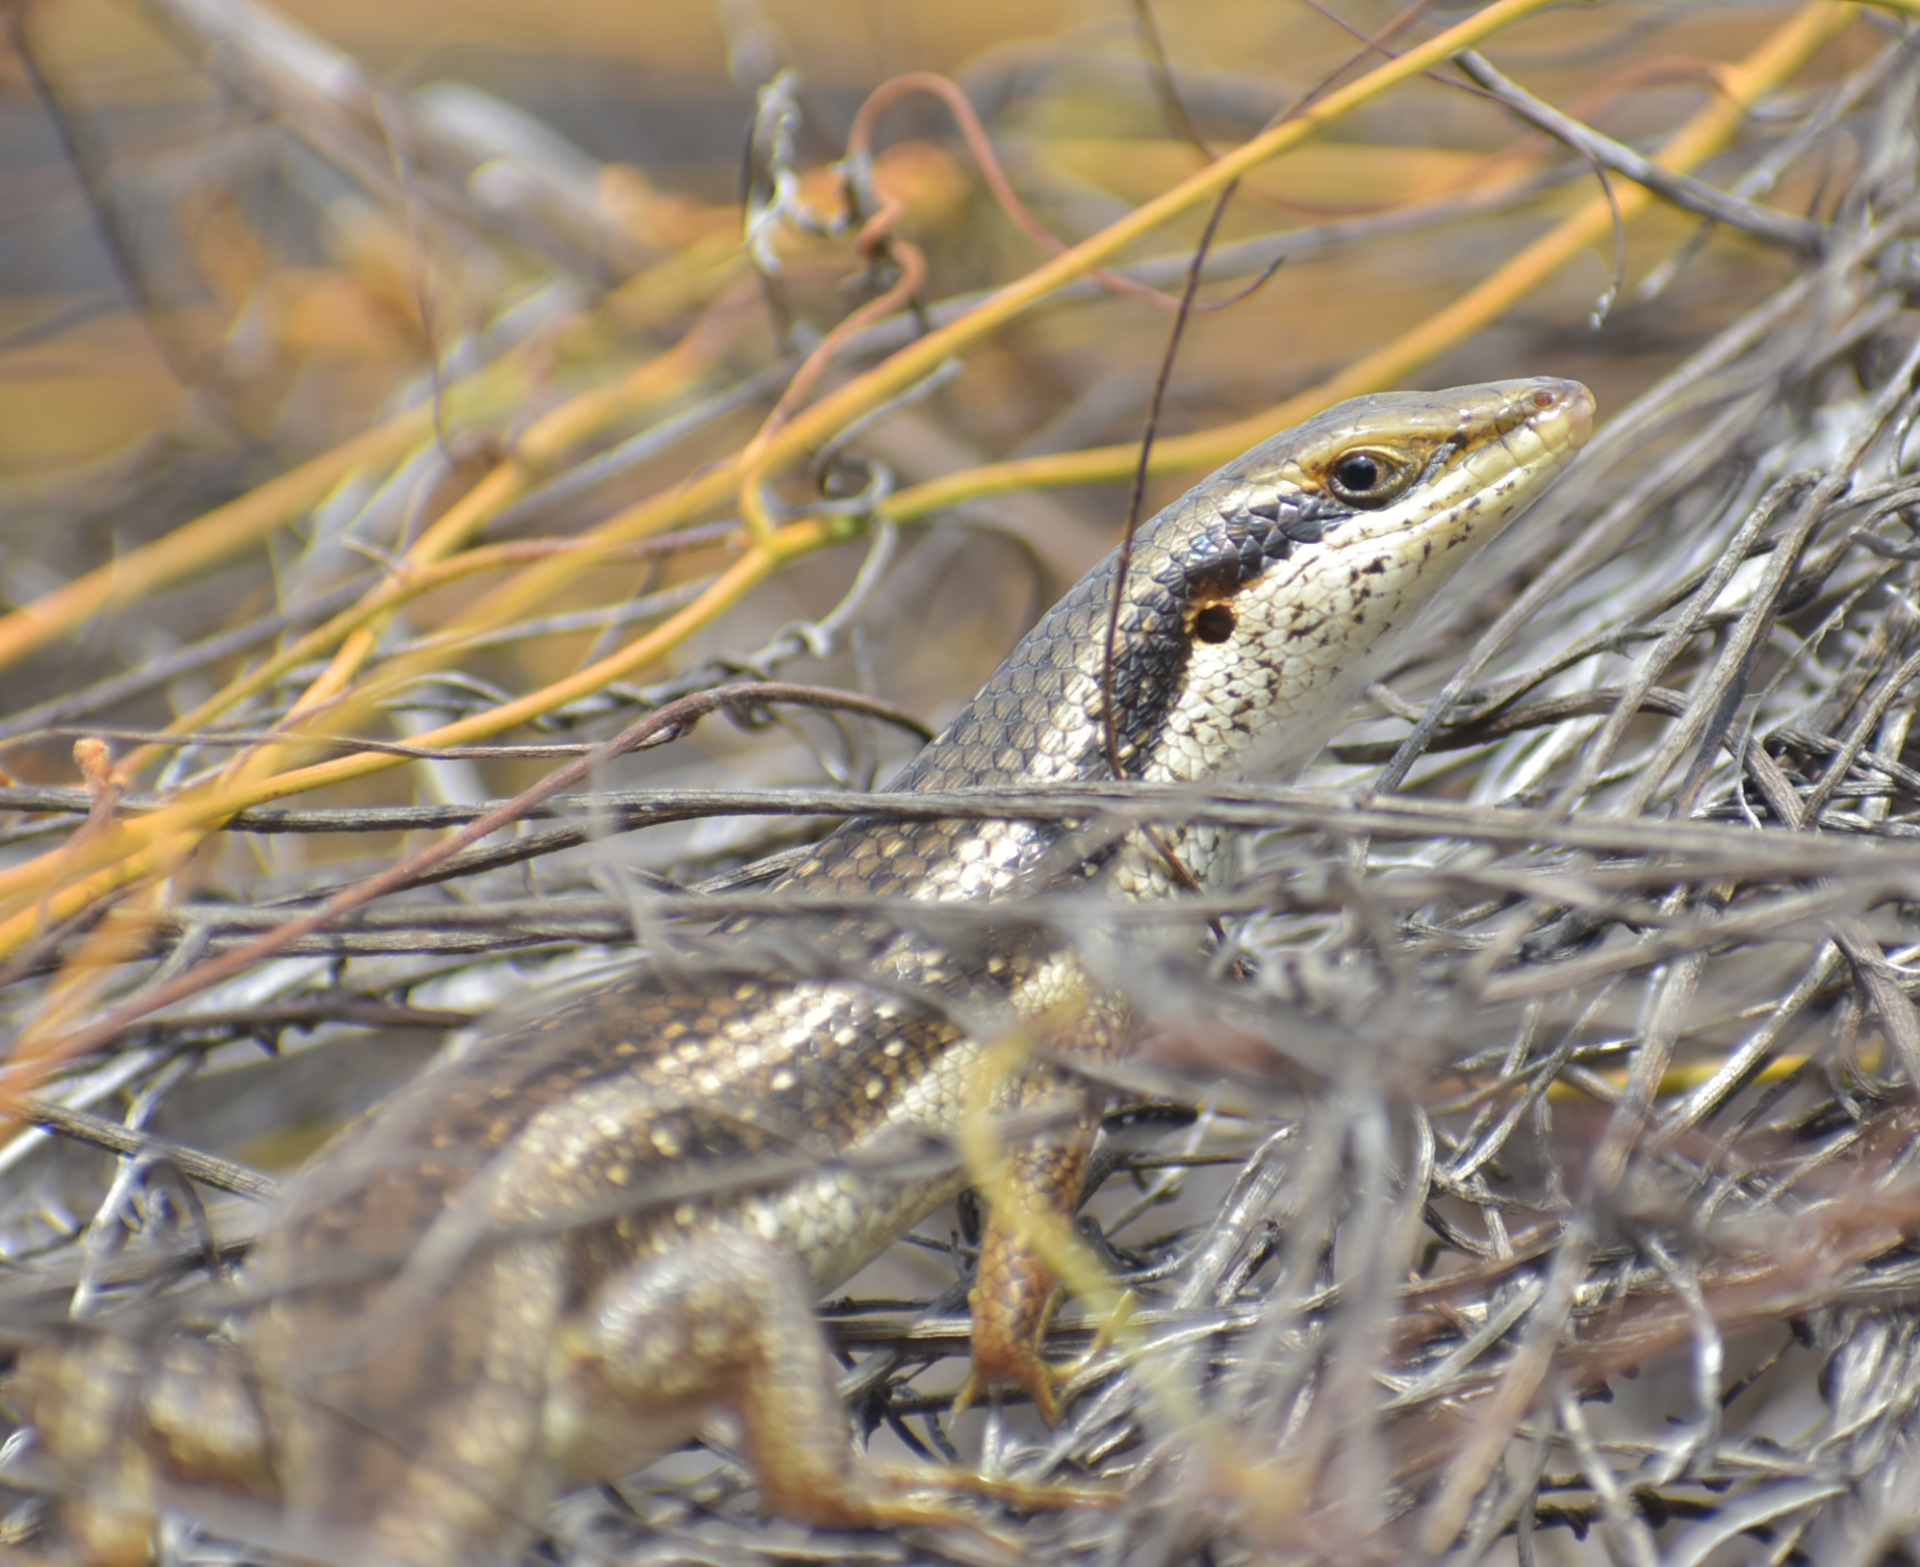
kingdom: Animalia
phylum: Chordata
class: Squamata
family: Scincidae
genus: Trachylepis
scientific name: Trachylepis planifrons
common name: Tree skink
